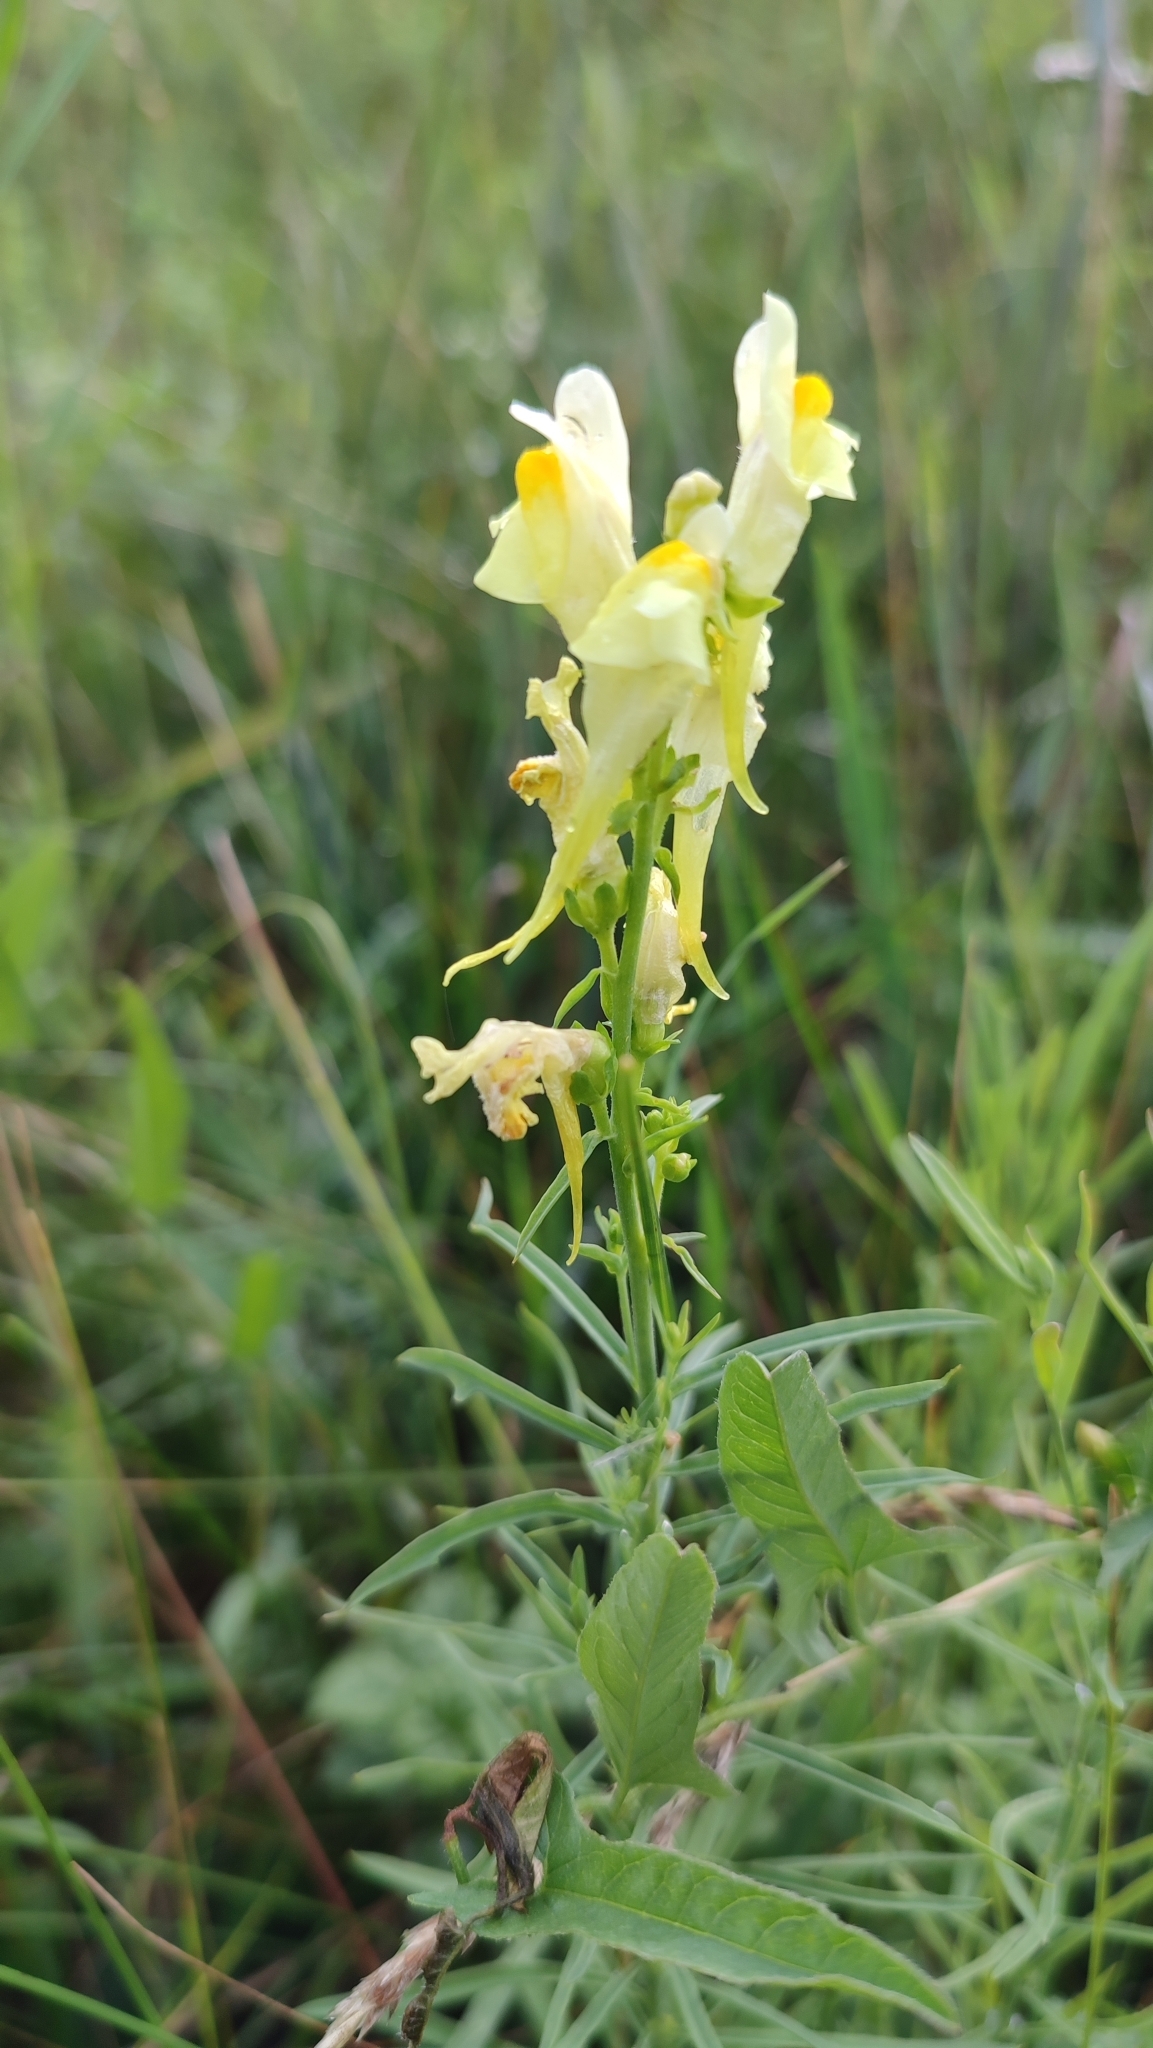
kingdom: Plantae
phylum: Tracheophyta
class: Magnoliopsida
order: Lamiales
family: Plantaginaceae
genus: Linaria
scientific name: Linaria vulgaris
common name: Butter and eggs
